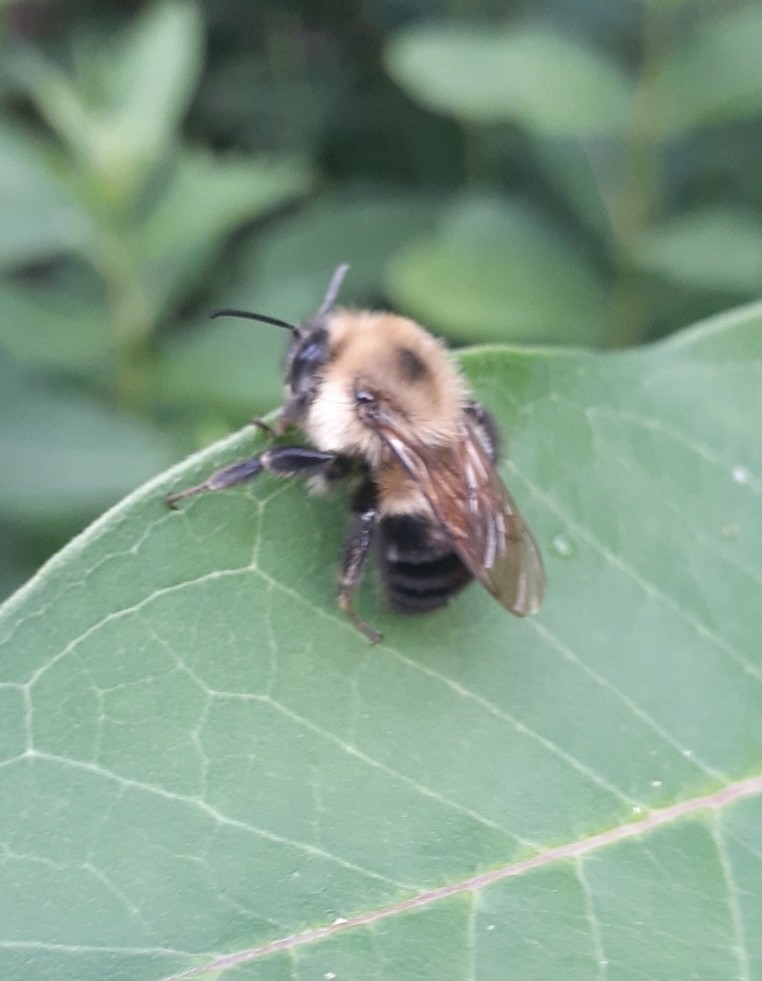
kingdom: Animalia
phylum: Arthropoda
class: Insecta
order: Hymenoptera
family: Apidae
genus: Bombus
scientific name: Bombus bimaculatus
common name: Two-spotted bumble bee
